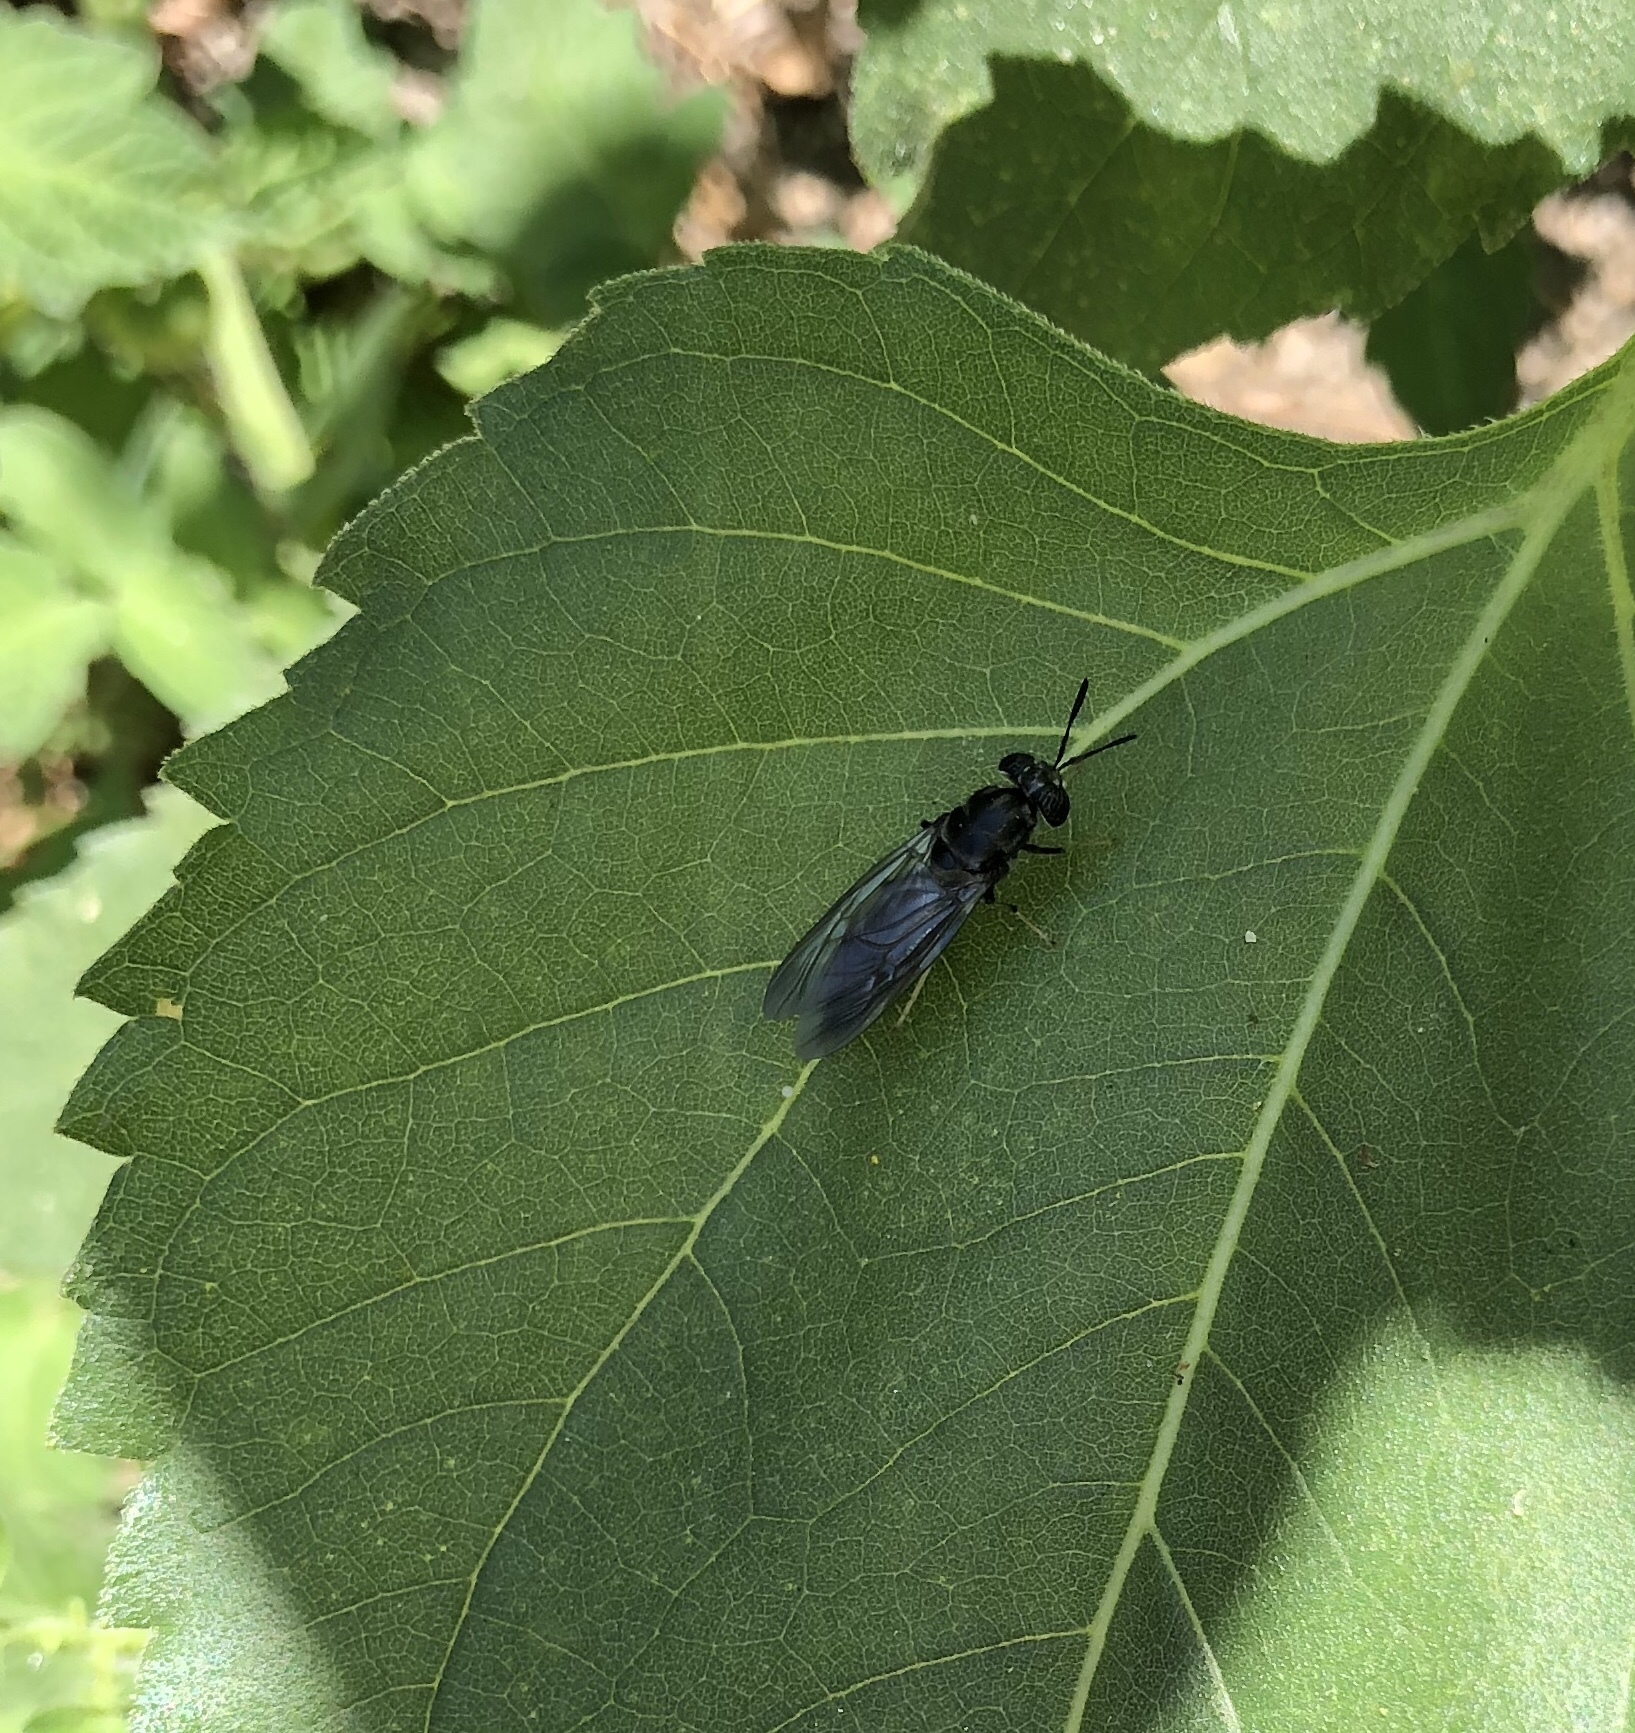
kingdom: Animalia
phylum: Arthropoda
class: Insecta
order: Diptera
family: Stratiomyidae
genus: Hermetia
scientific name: Hermetia illucens
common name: Black soldier fly
